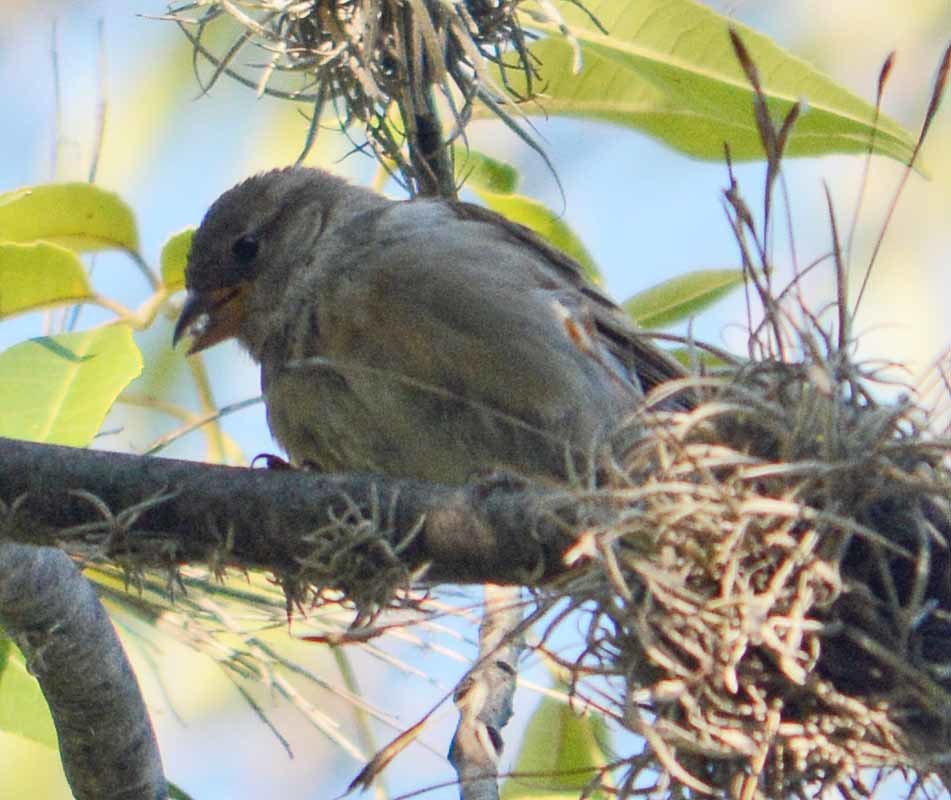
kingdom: Animalia
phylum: Chordata
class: Aves
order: Passeriformes
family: Passeridae
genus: Passer
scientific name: Passer domesticus
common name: House sparrow
